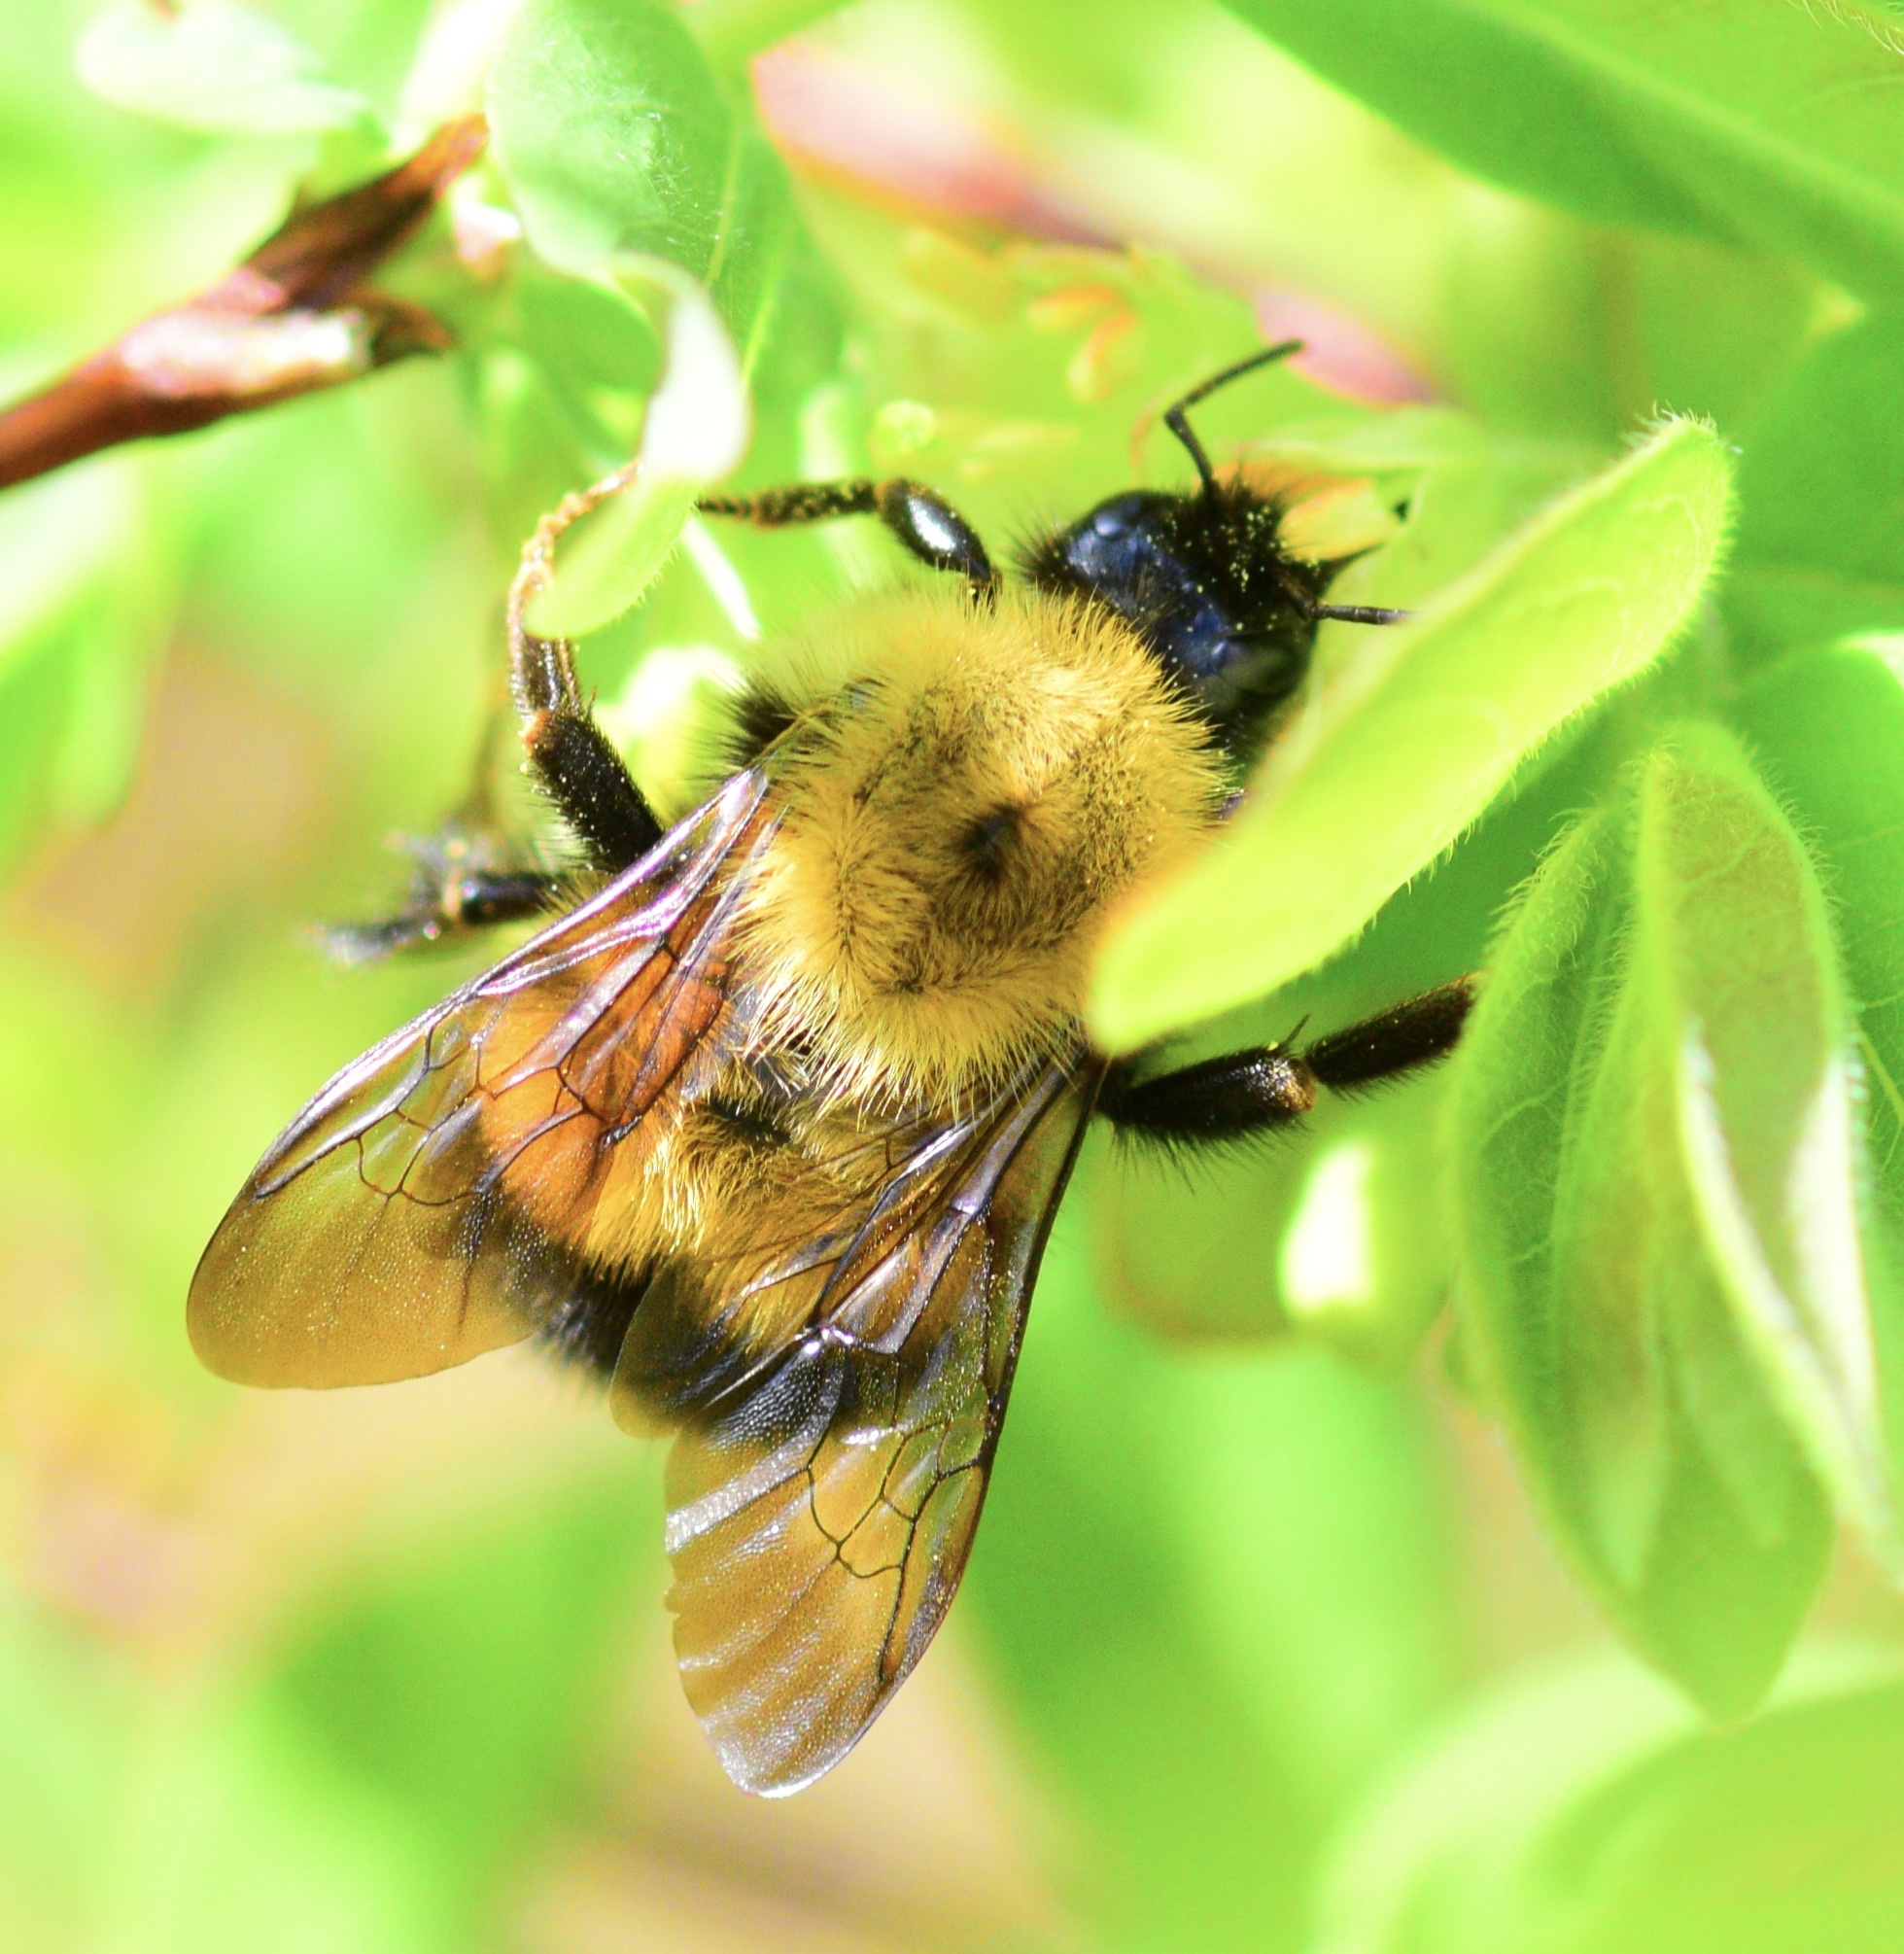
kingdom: Animalia
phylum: Arthropoda
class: Insecta
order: Hymenoptera
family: Apidae
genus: Bombus
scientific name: Bombus perplexus
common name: Confusing bumble bee
